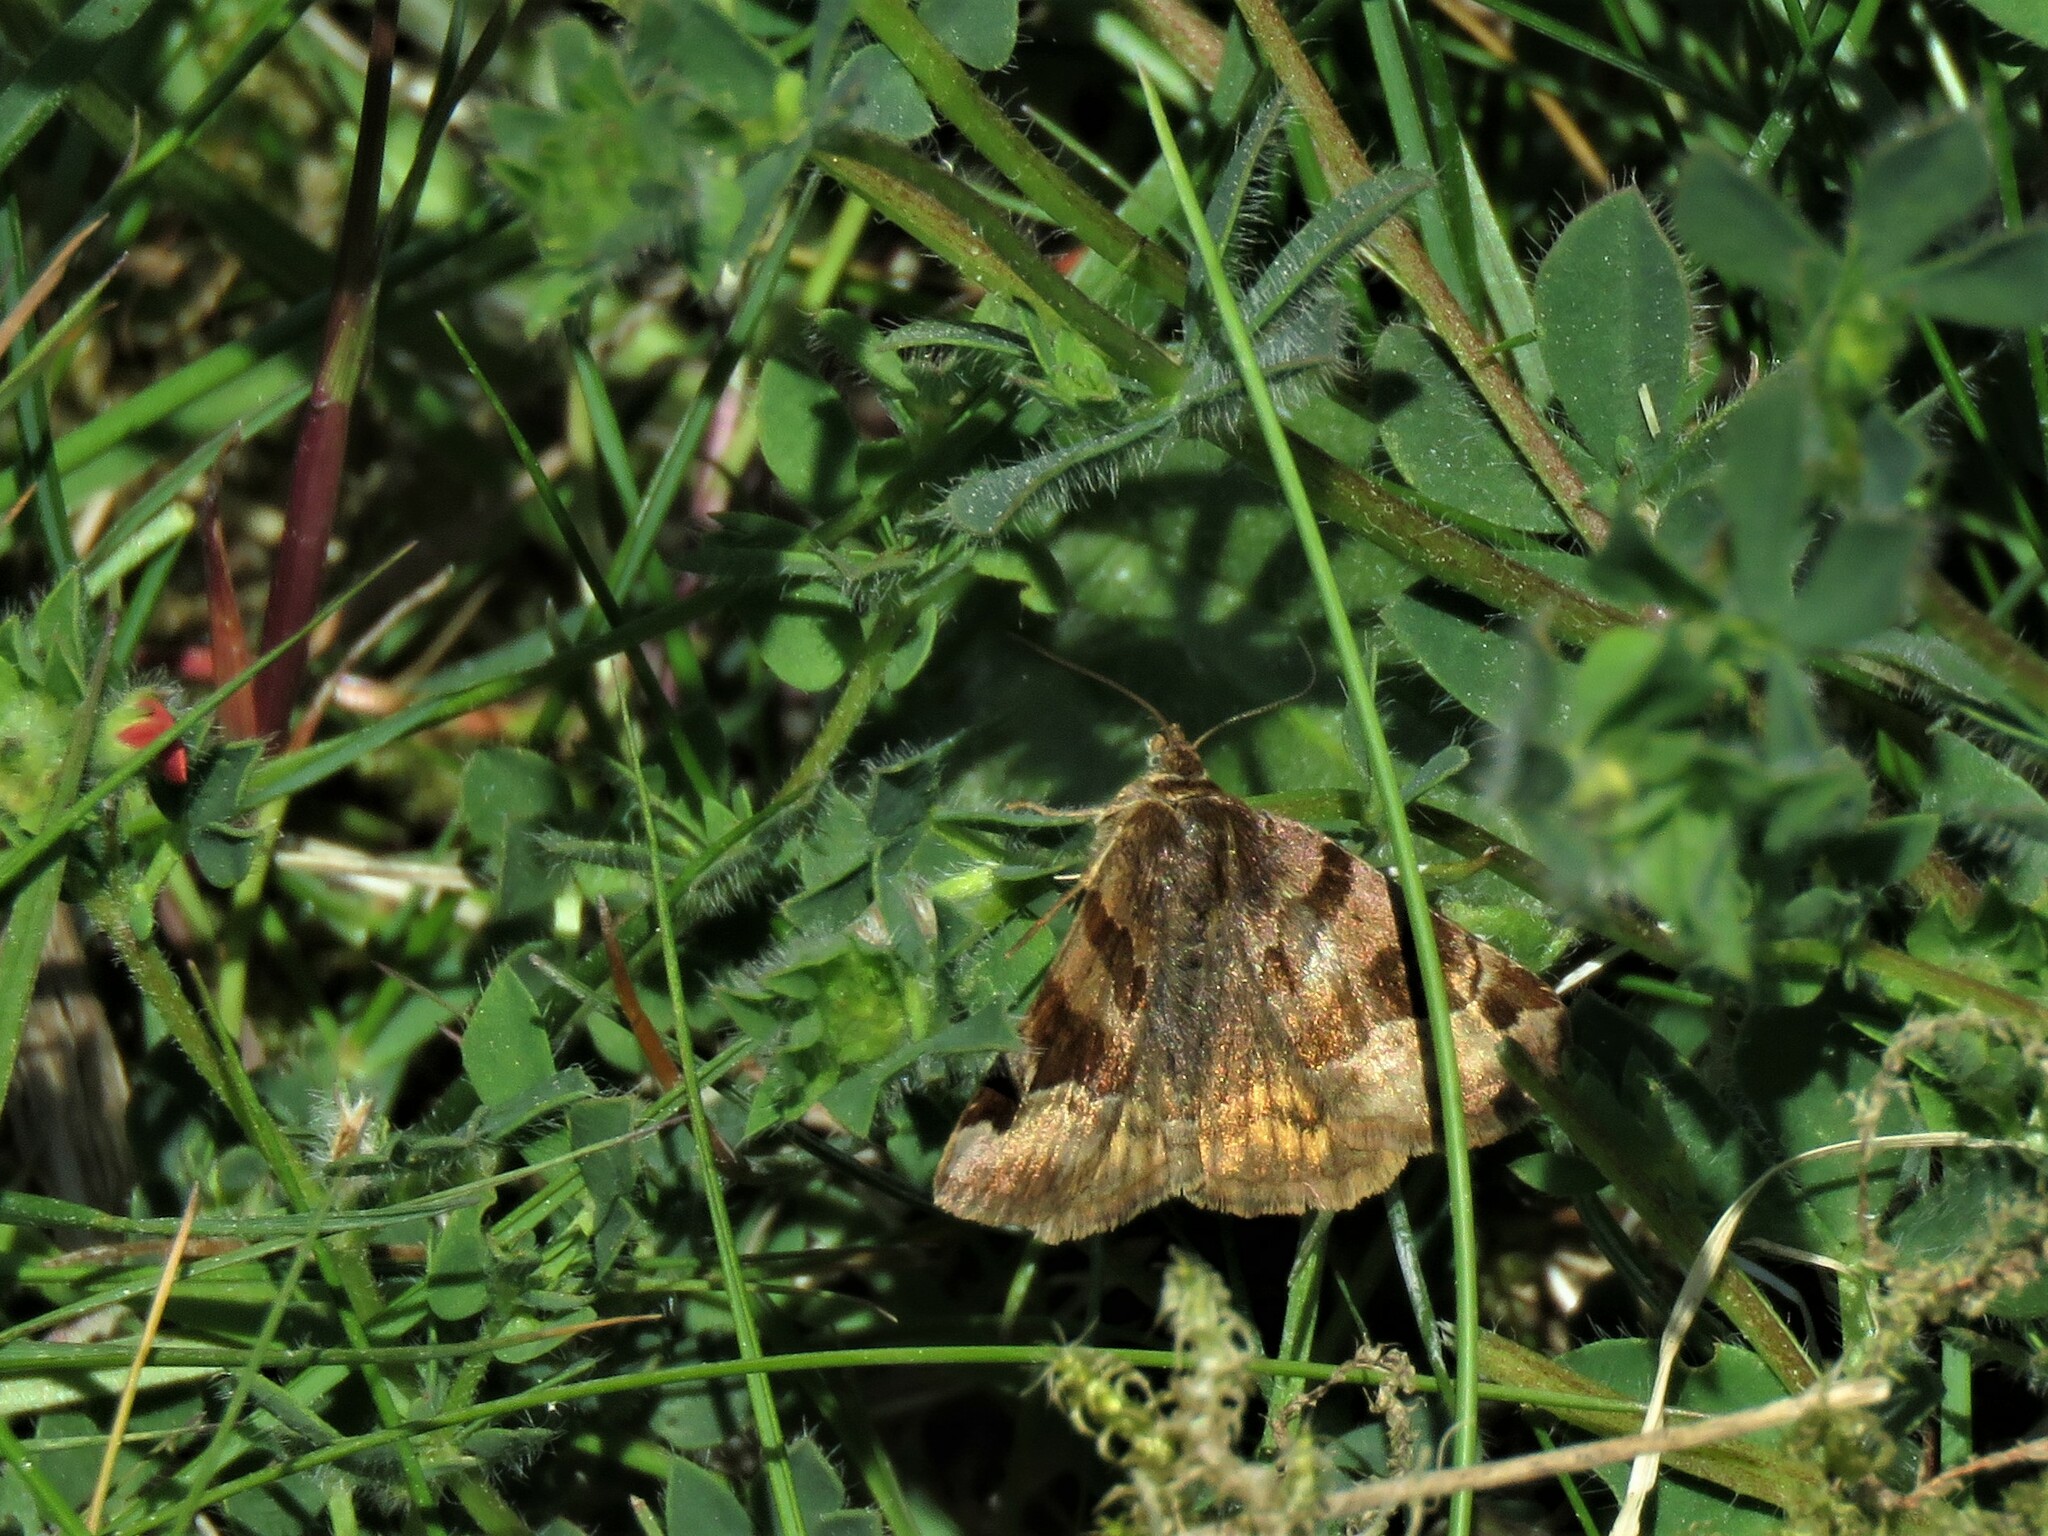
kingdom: Animalia
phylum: Arthropoda
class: Insecta
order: Lepidoptera
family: Erebidae
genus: Euclidia
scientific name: Euclidia glyphica
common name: Burnet companion
